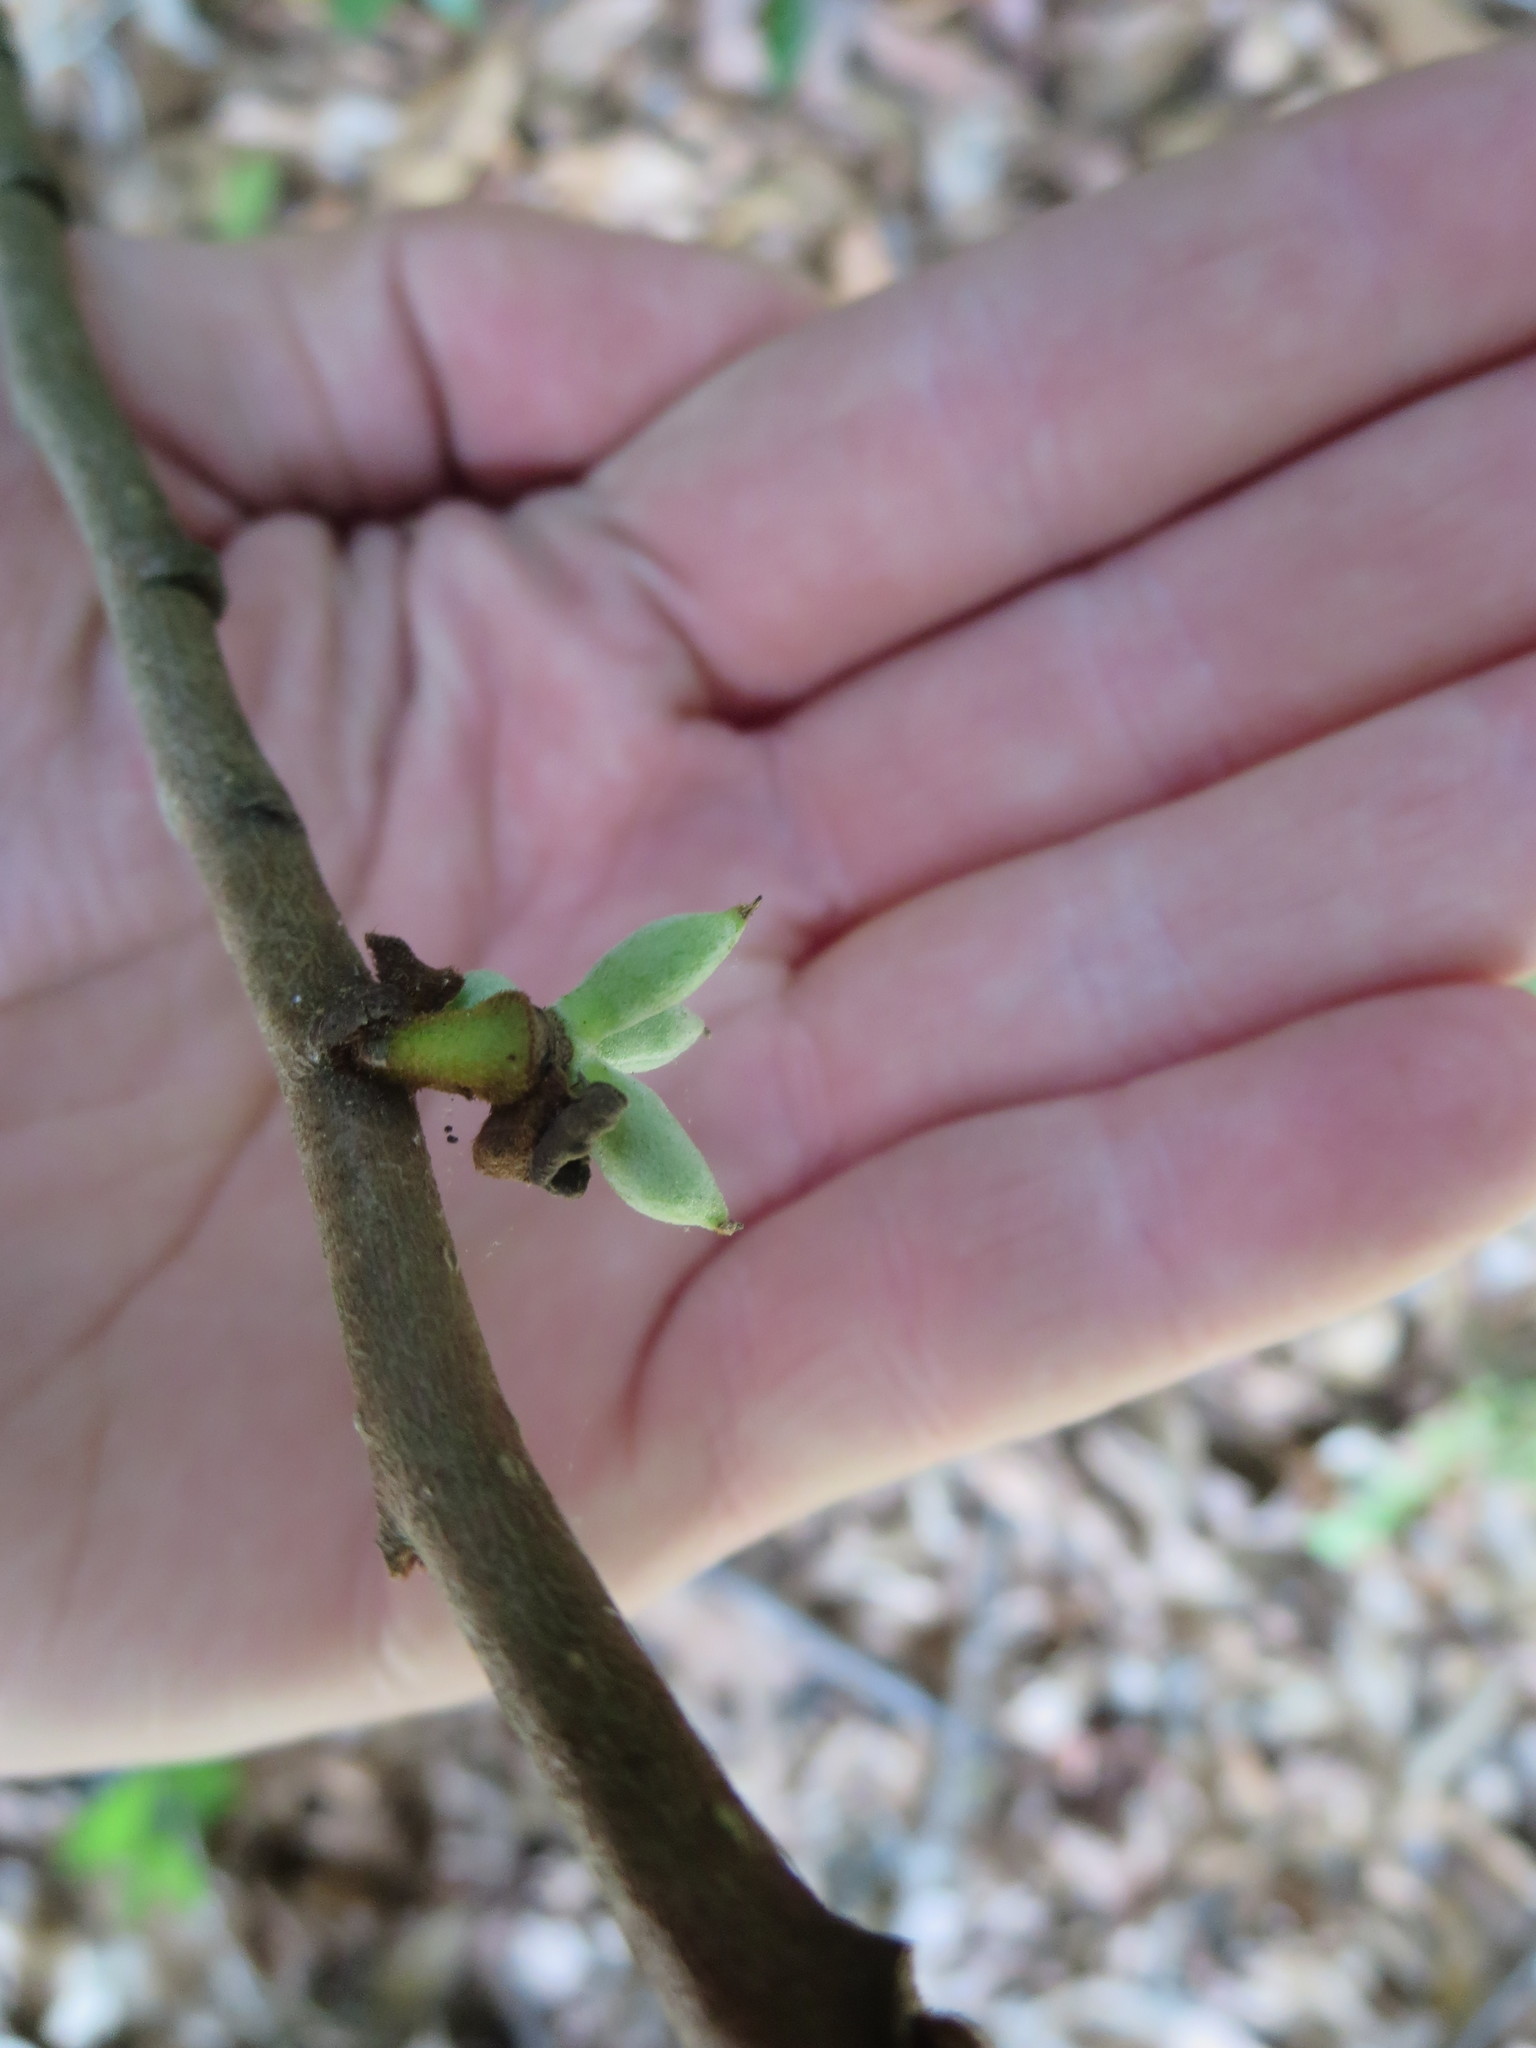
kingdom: Plantae
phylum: Tracheophyta
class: Magnoliopsida
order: Magnoliales
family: Annonaceae
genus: Asimina
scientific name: Asimina parviflora
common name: Dwarf pawpaw
